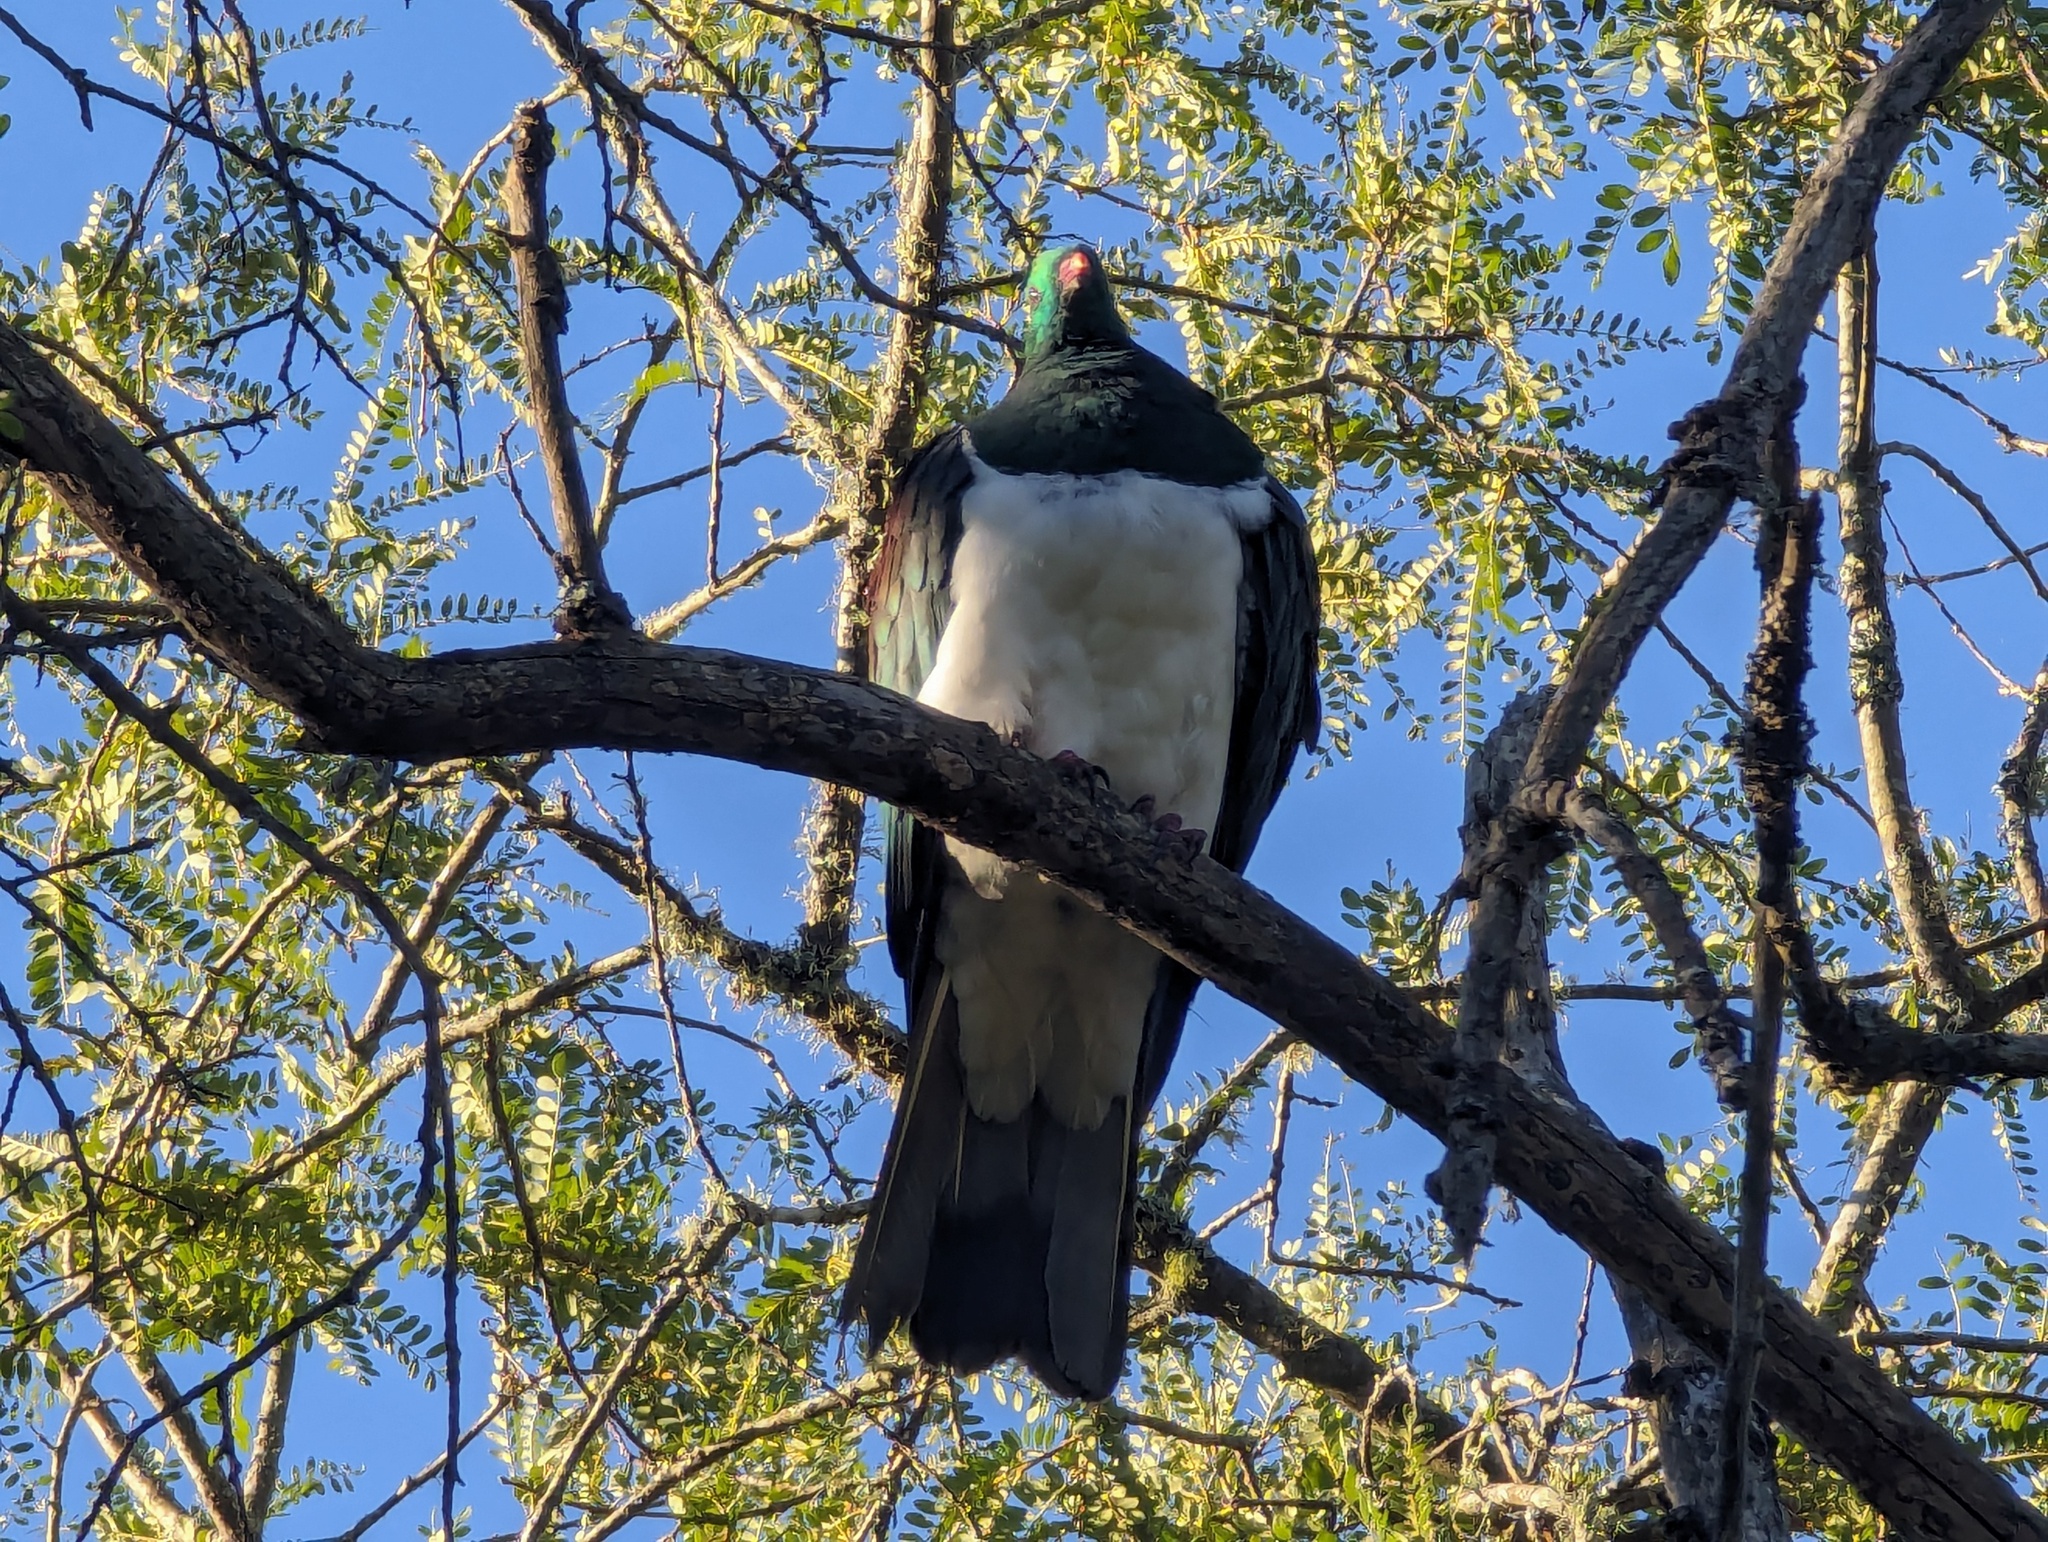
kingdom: Animalia
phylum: Chordata
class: Aves
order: Columbiformes
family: Columbidae
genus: Hemiphaga
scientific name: Hemiphaga novaeseelandiae
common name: New zealand pigeon
